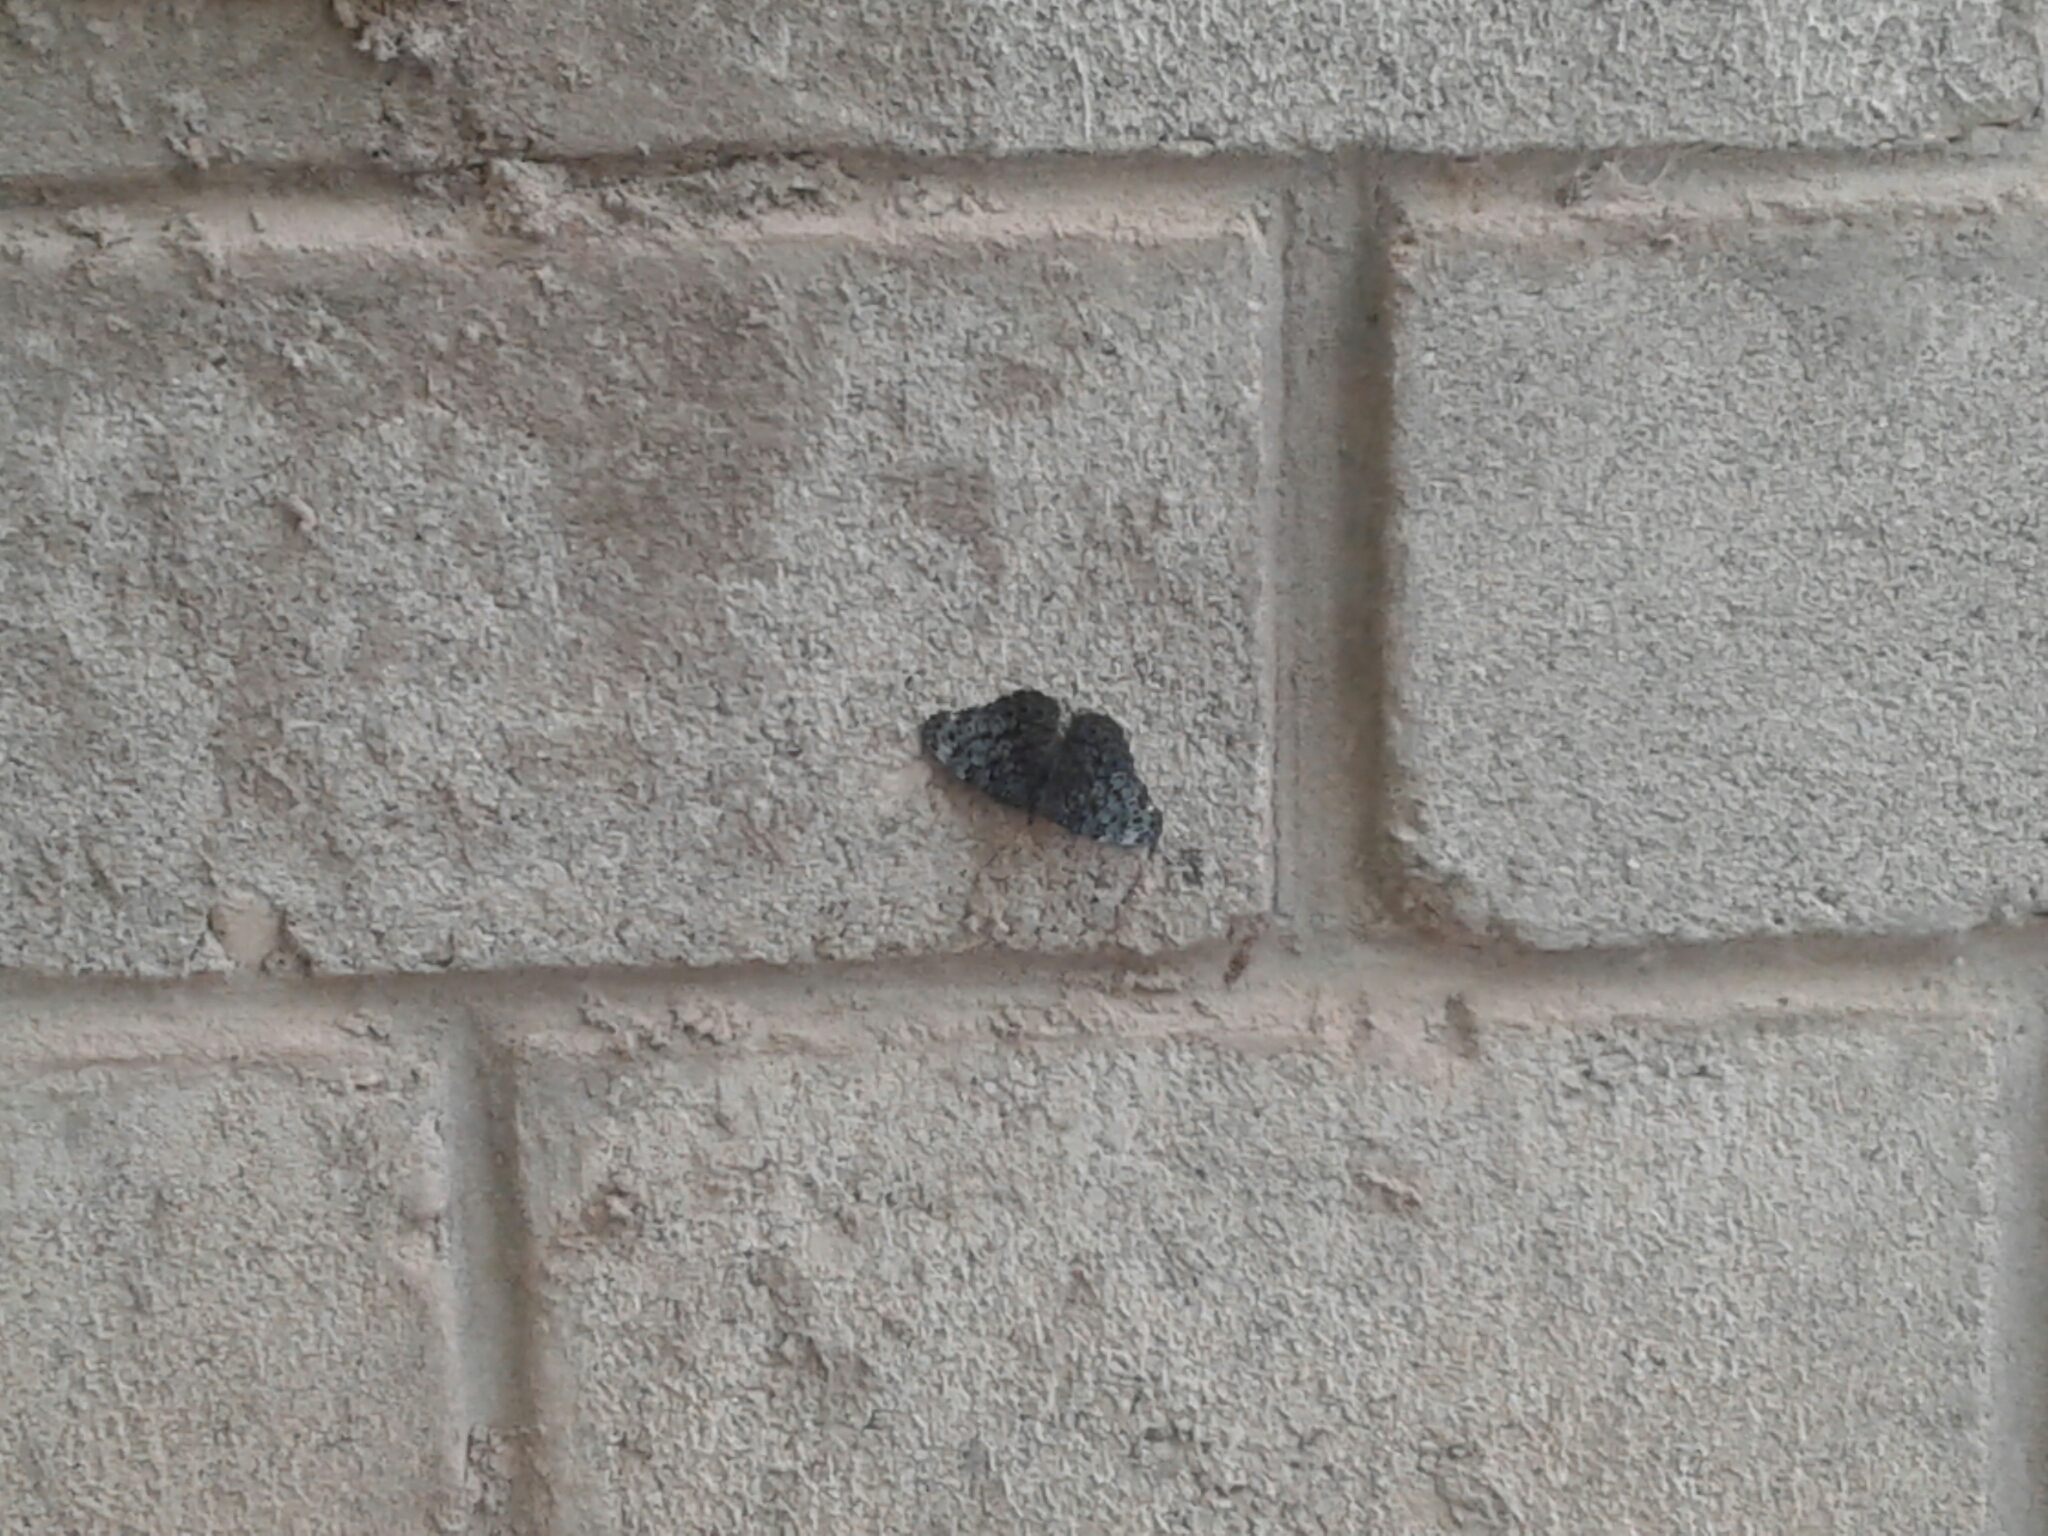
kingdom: Animalia
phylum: Arthropoda
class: Insecta
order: Lepidoptera
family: Nymphalidae
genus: Hamadryas
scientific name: Hamadryas atlantis
